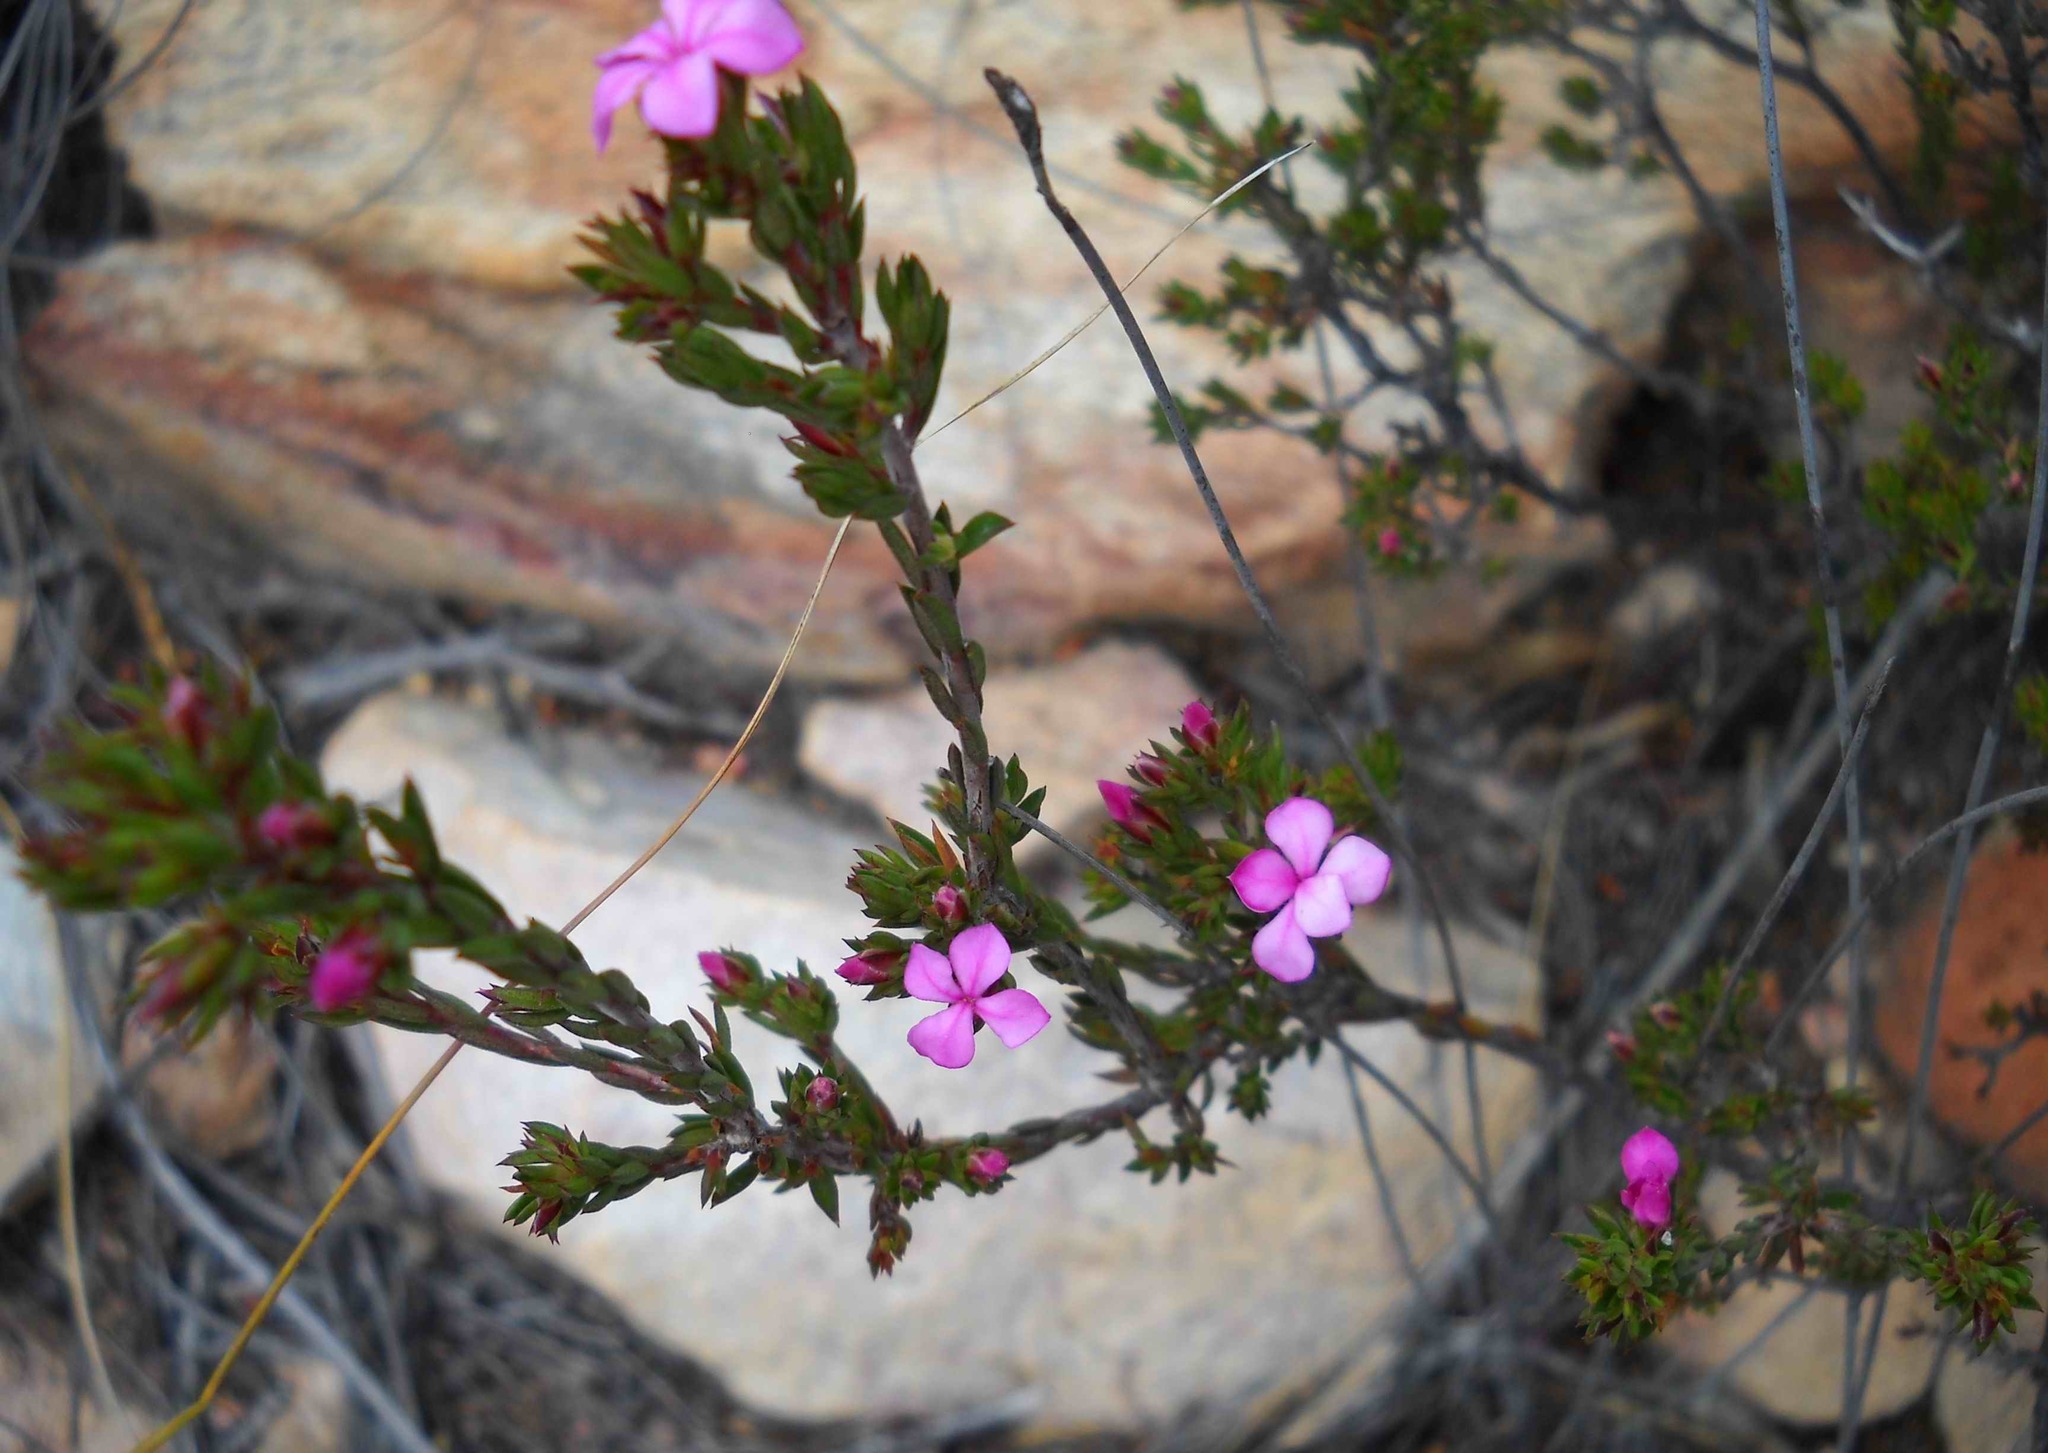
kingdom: Plantae
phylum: Tracheophyta
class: Magnoliopsida
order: Sapindales
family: Rutaceae
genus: Acmadenia
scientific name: Acmadenia maculata
